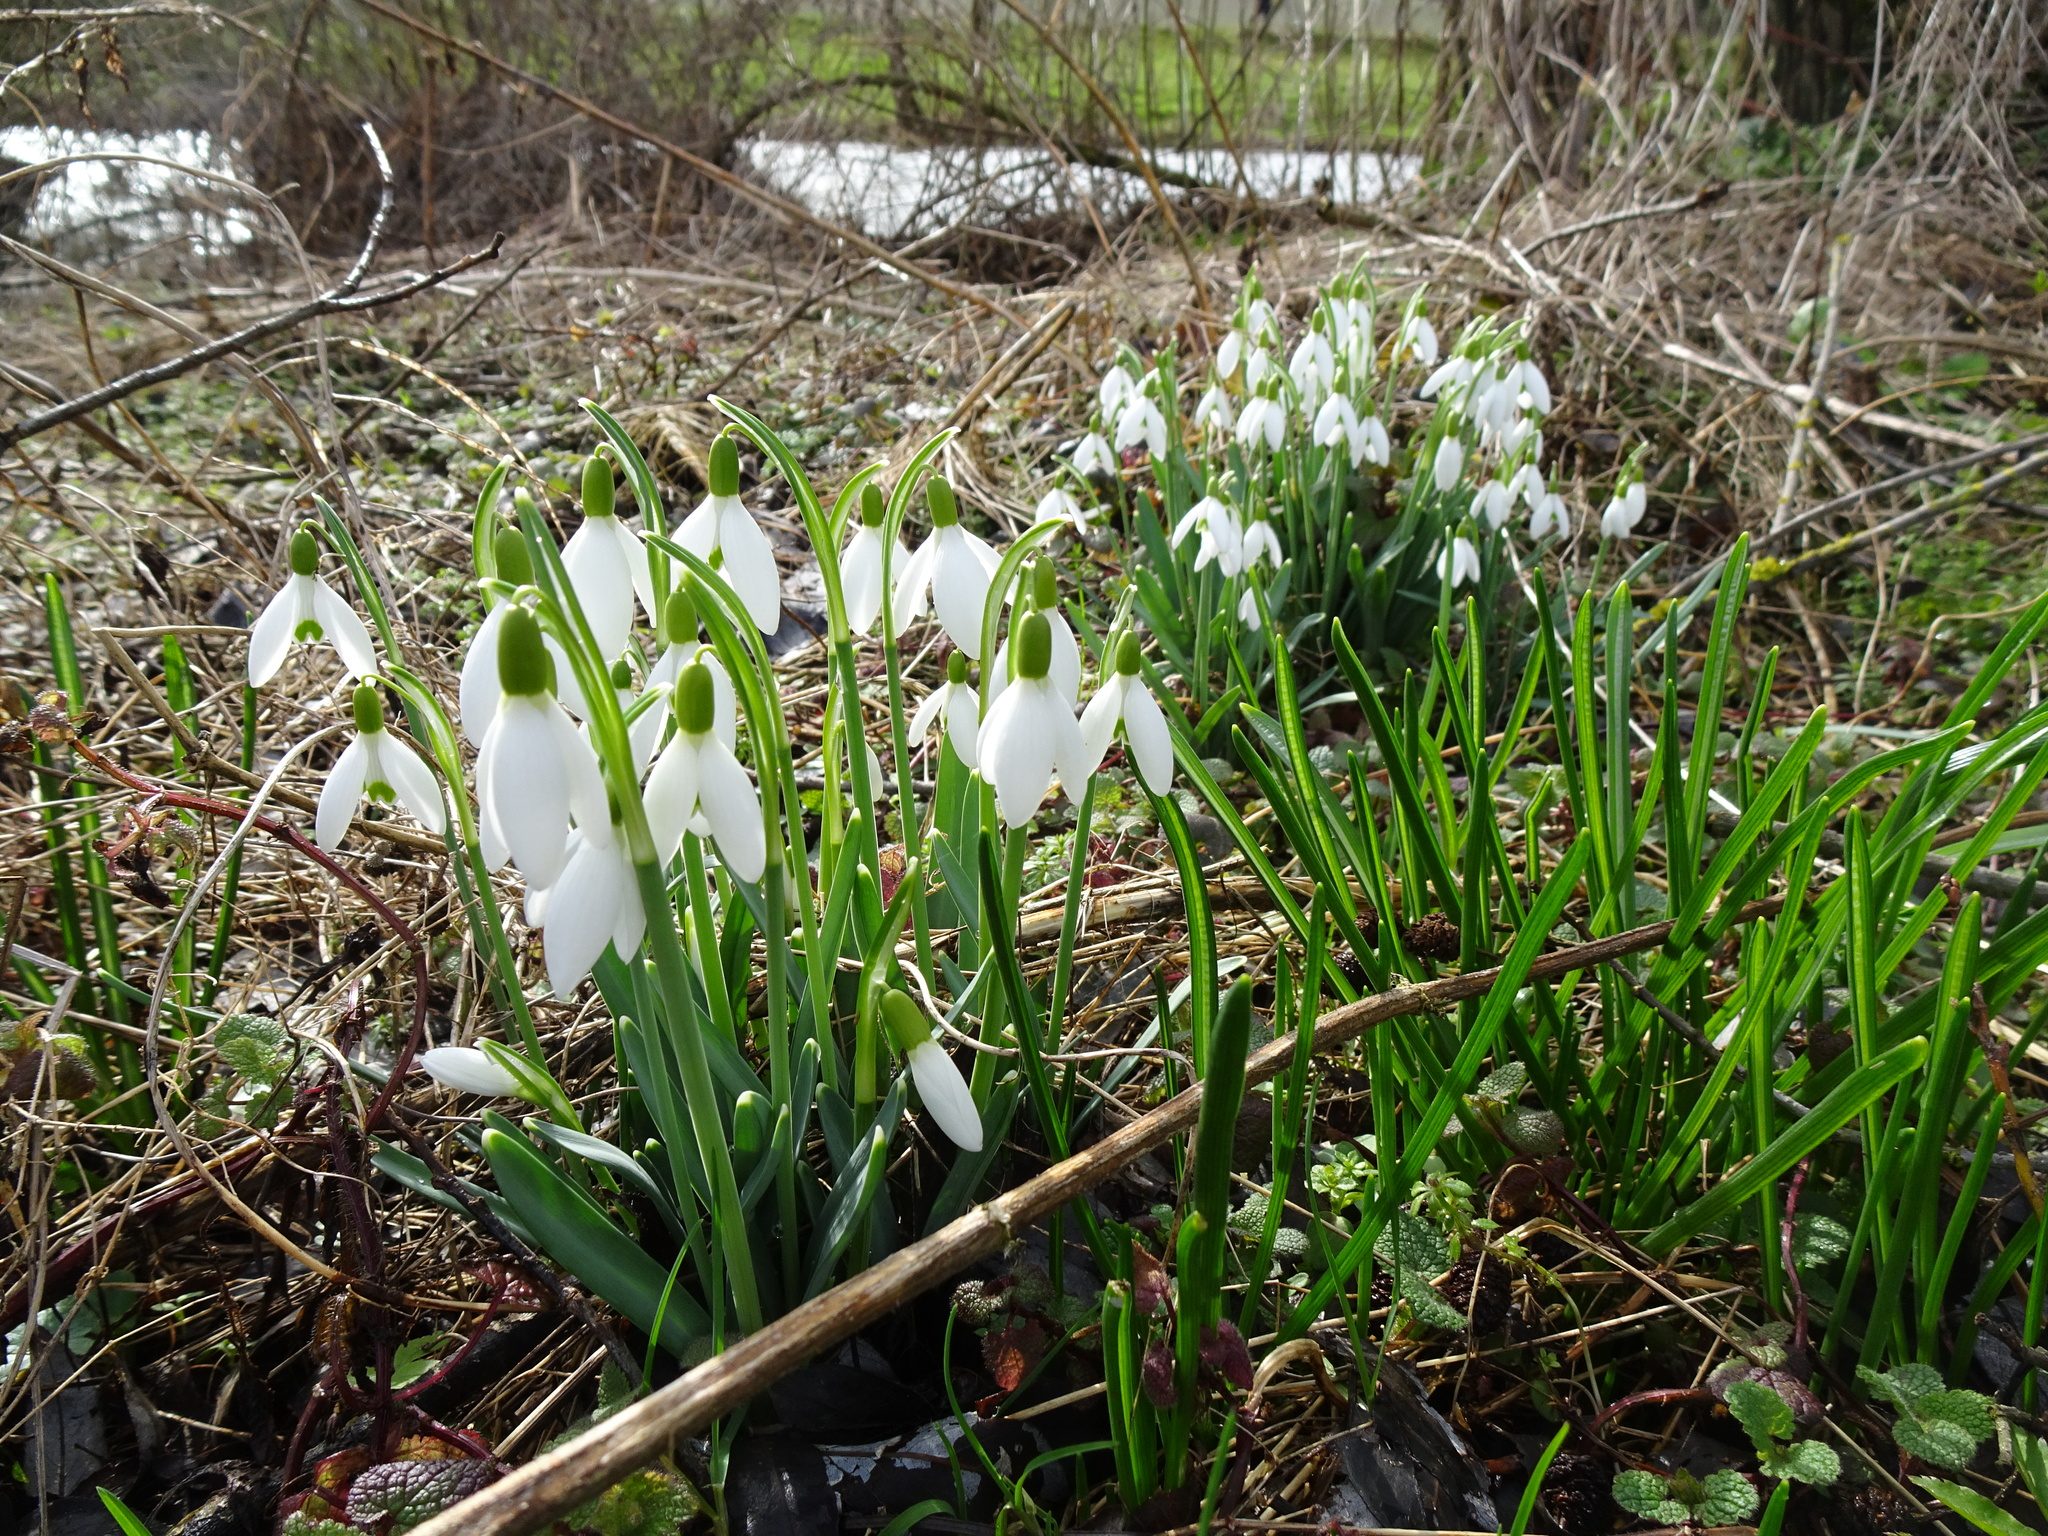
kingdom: Plantae
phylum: Tracheophyta
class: Liliopsida
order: Asparagales
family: Amaryllidaceae
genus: Galanthus
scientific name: Galanthus nivalis
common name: Snowdrop
